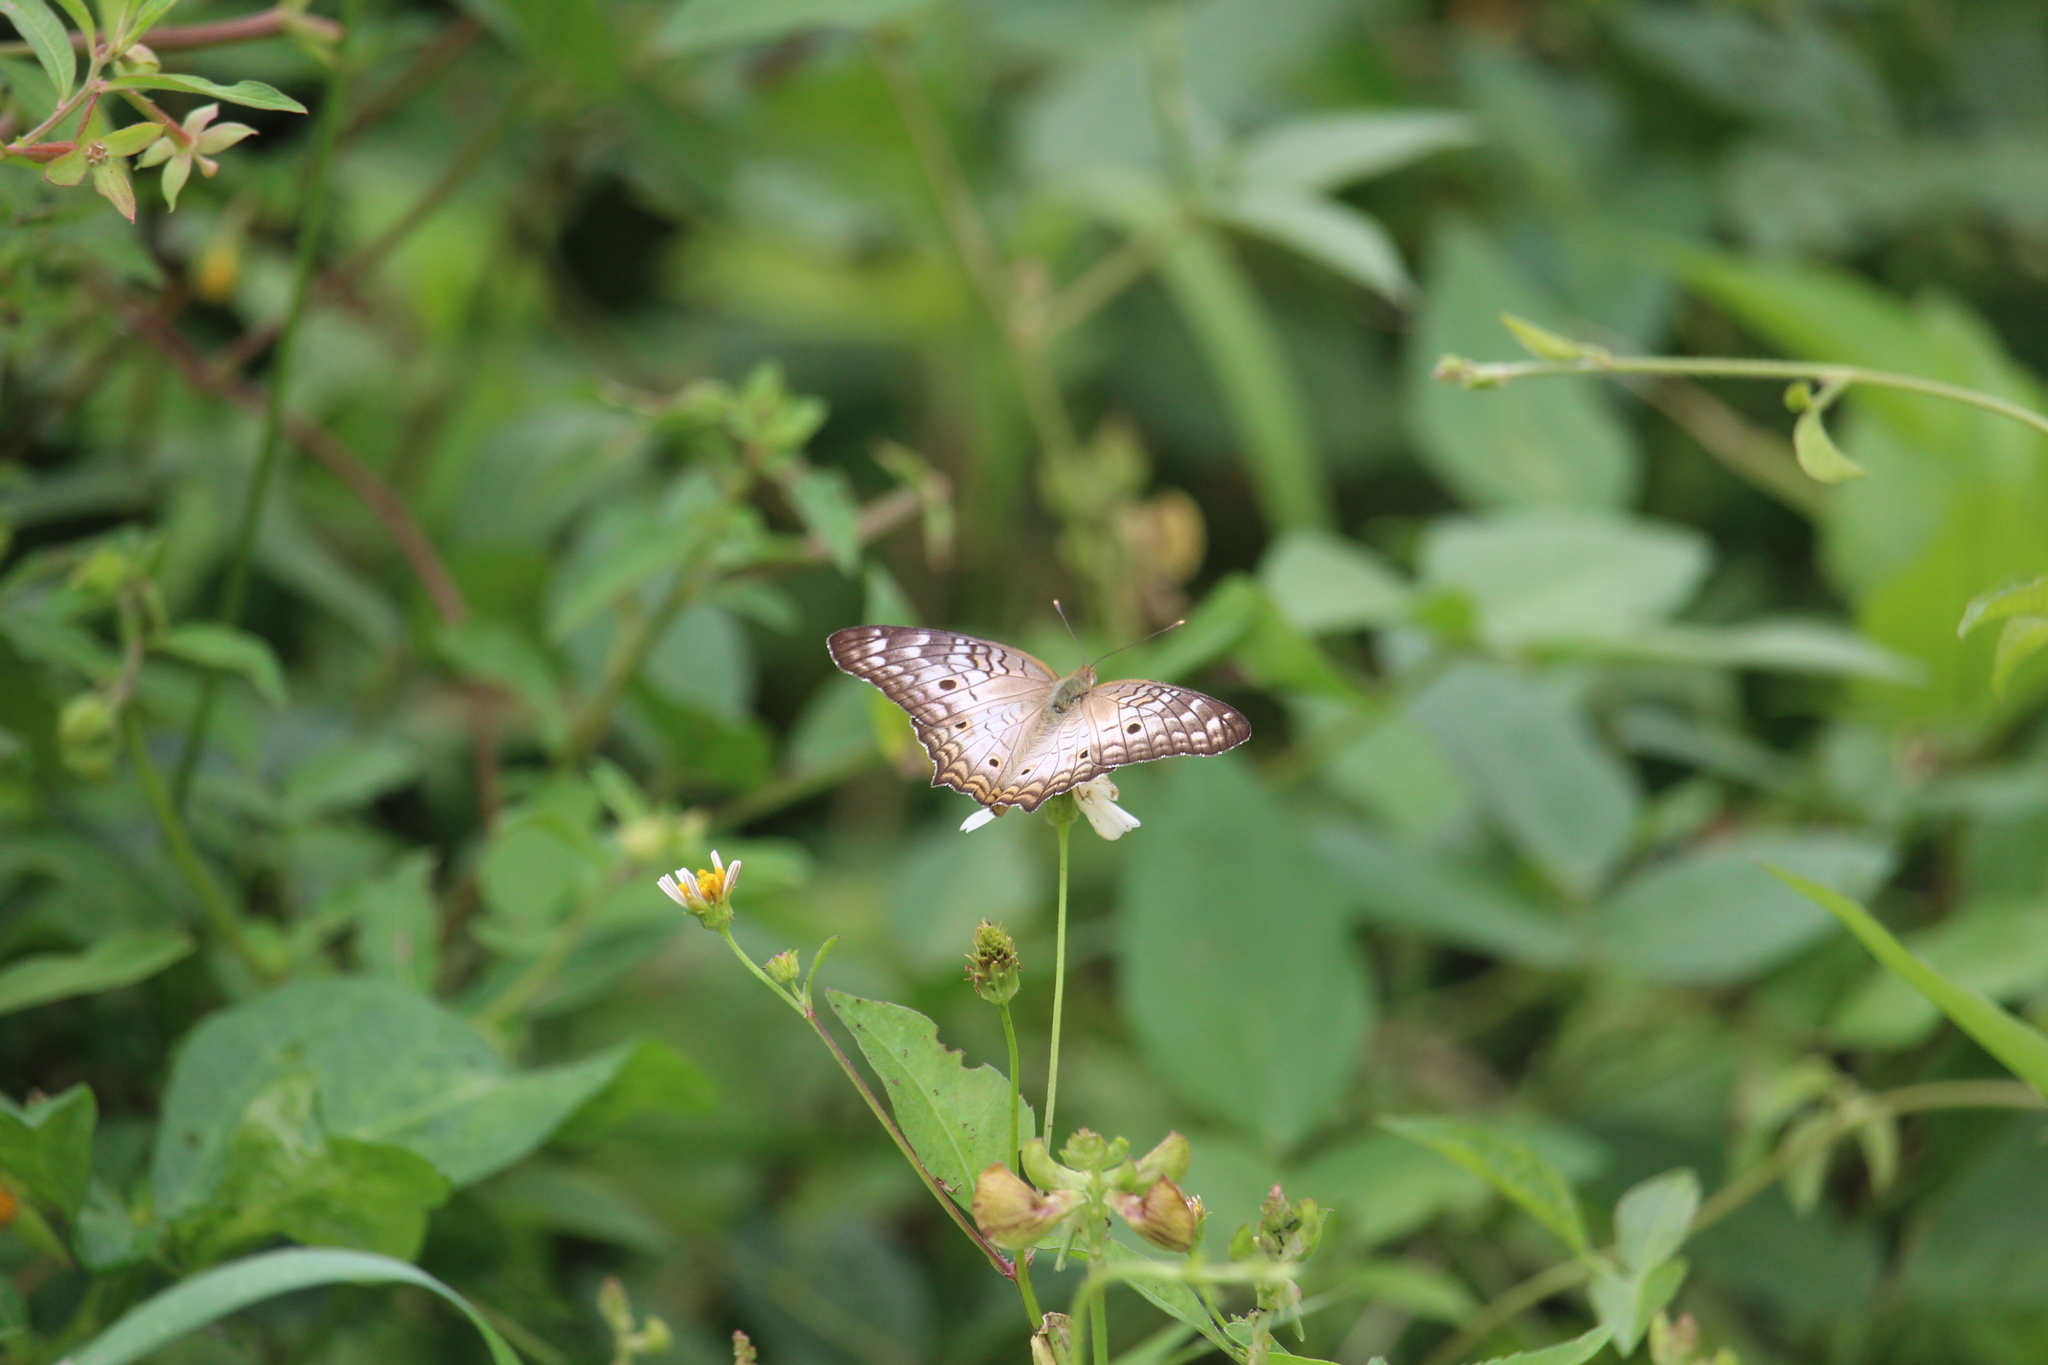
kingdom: Animalia
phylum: Arthropoda
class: Insecta
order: Lepidoptera
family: Nymphalidae
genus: Anartia
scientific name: Anartia jatrophae
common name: White peacock
